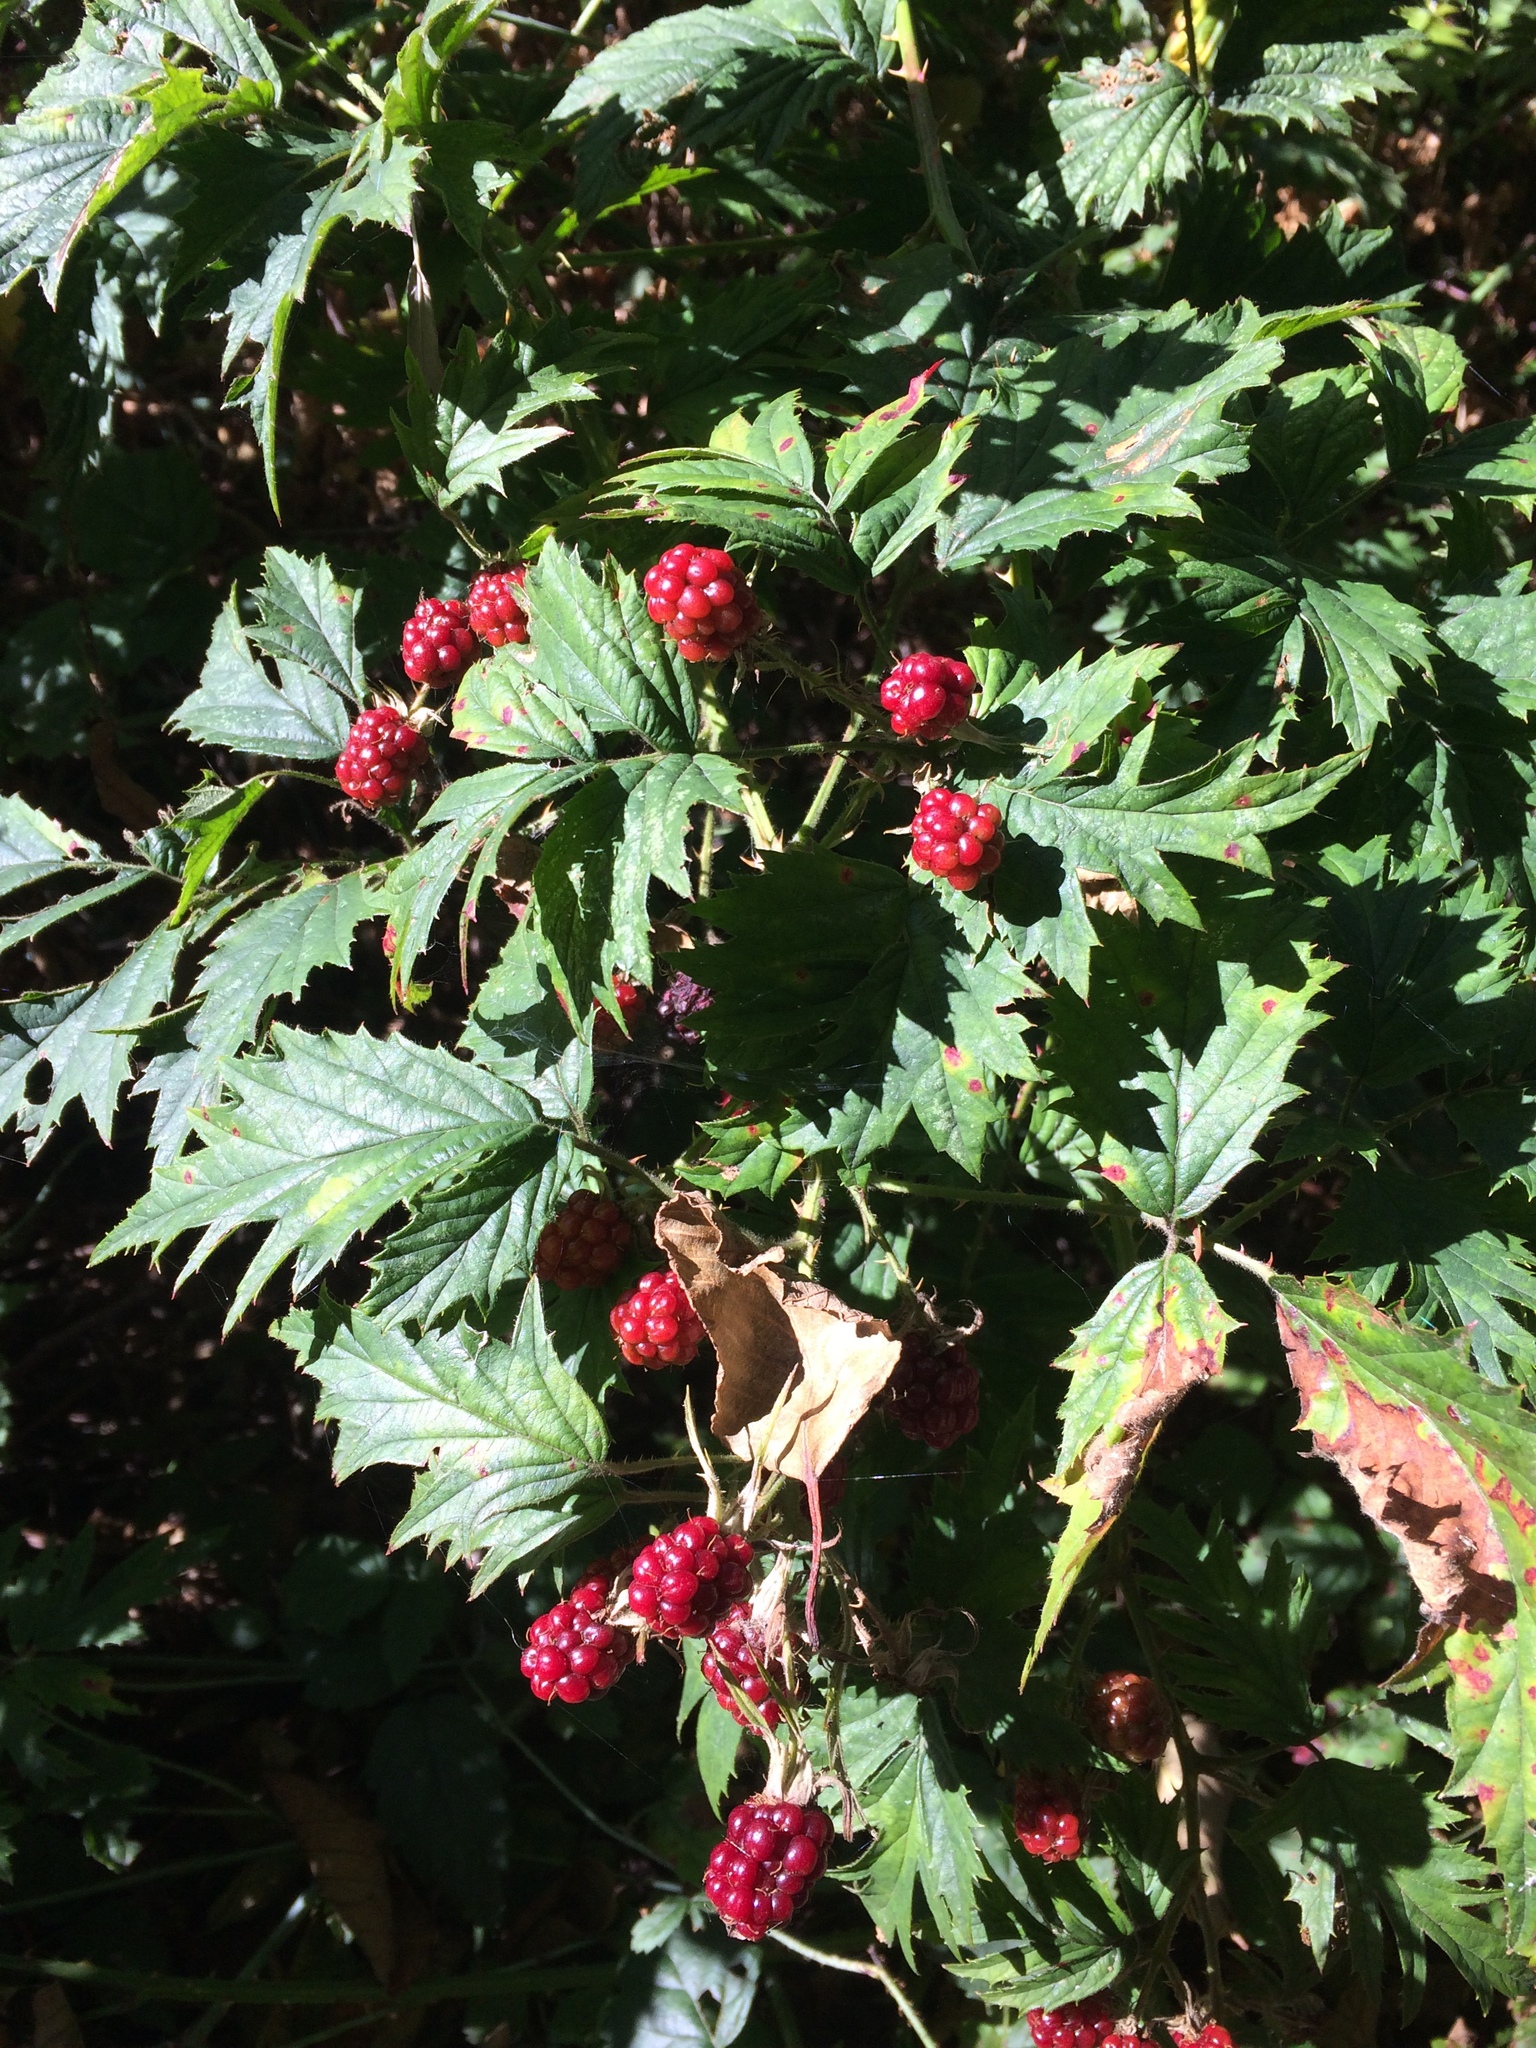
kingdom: Plantae
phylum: Tracheophyta
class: Magnoliopsida
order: Rosales
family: Rosaceae
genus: Rubus
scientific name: Rubus laciniatus
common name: Evergreen blackberry
